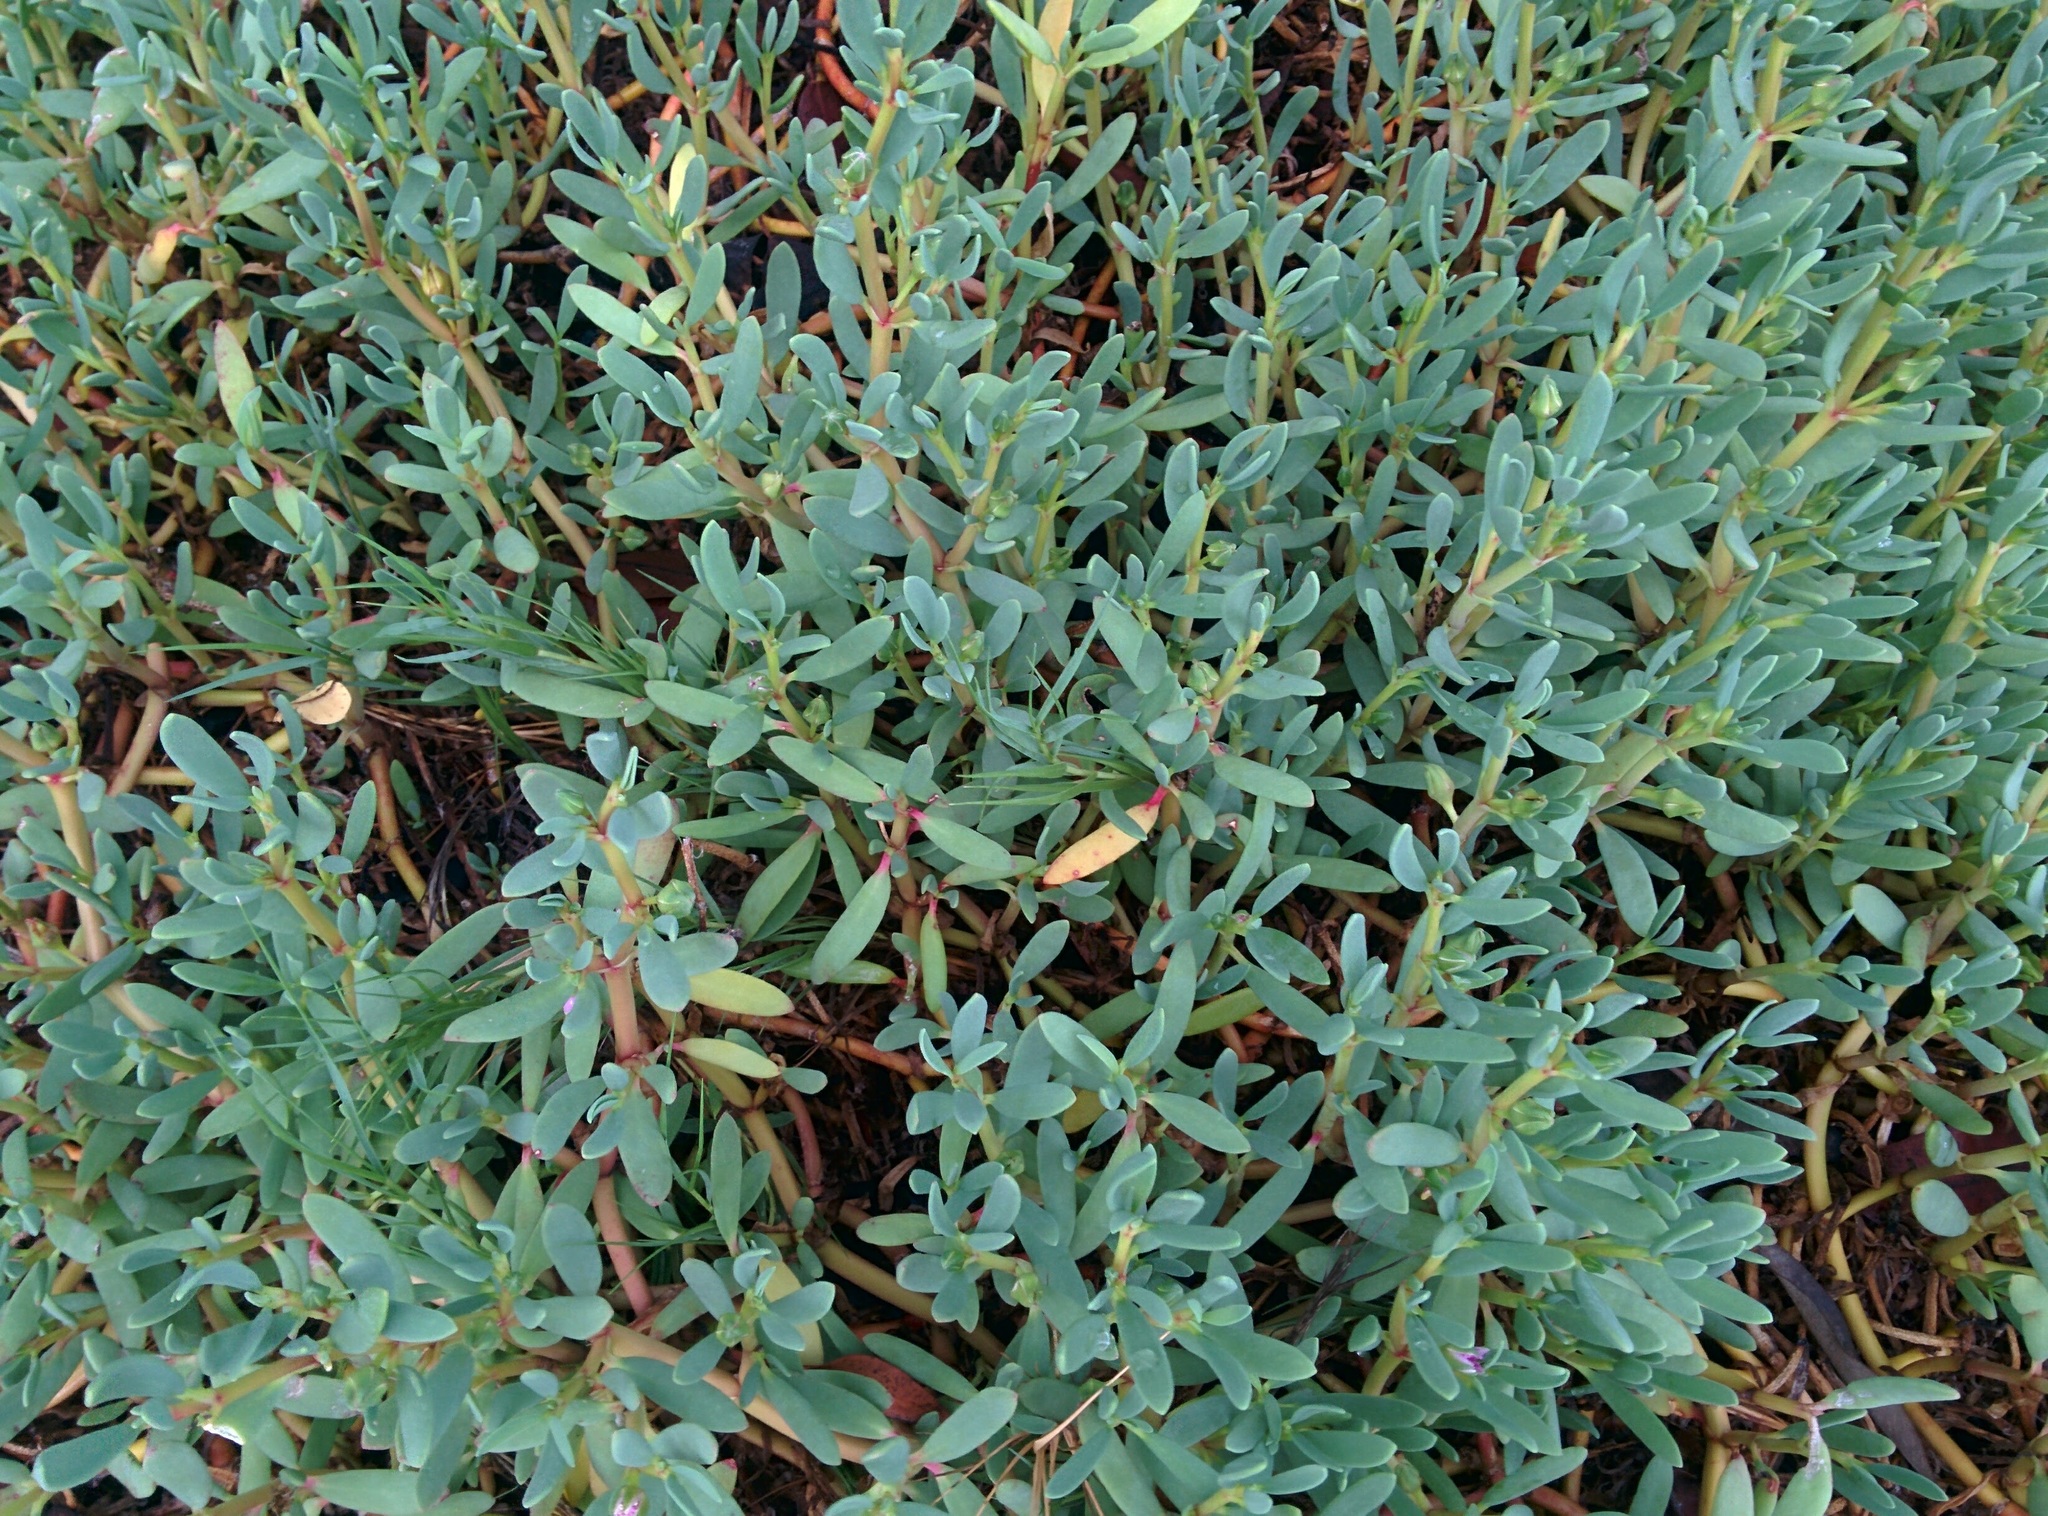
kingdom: Plantae
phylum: Tracheophyta
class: Magnoliopsida
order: Caryophyllales
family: Aizoaceae
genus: Sesuvium
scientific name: Sesuvium portulacastrum
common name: Sea-purslane
